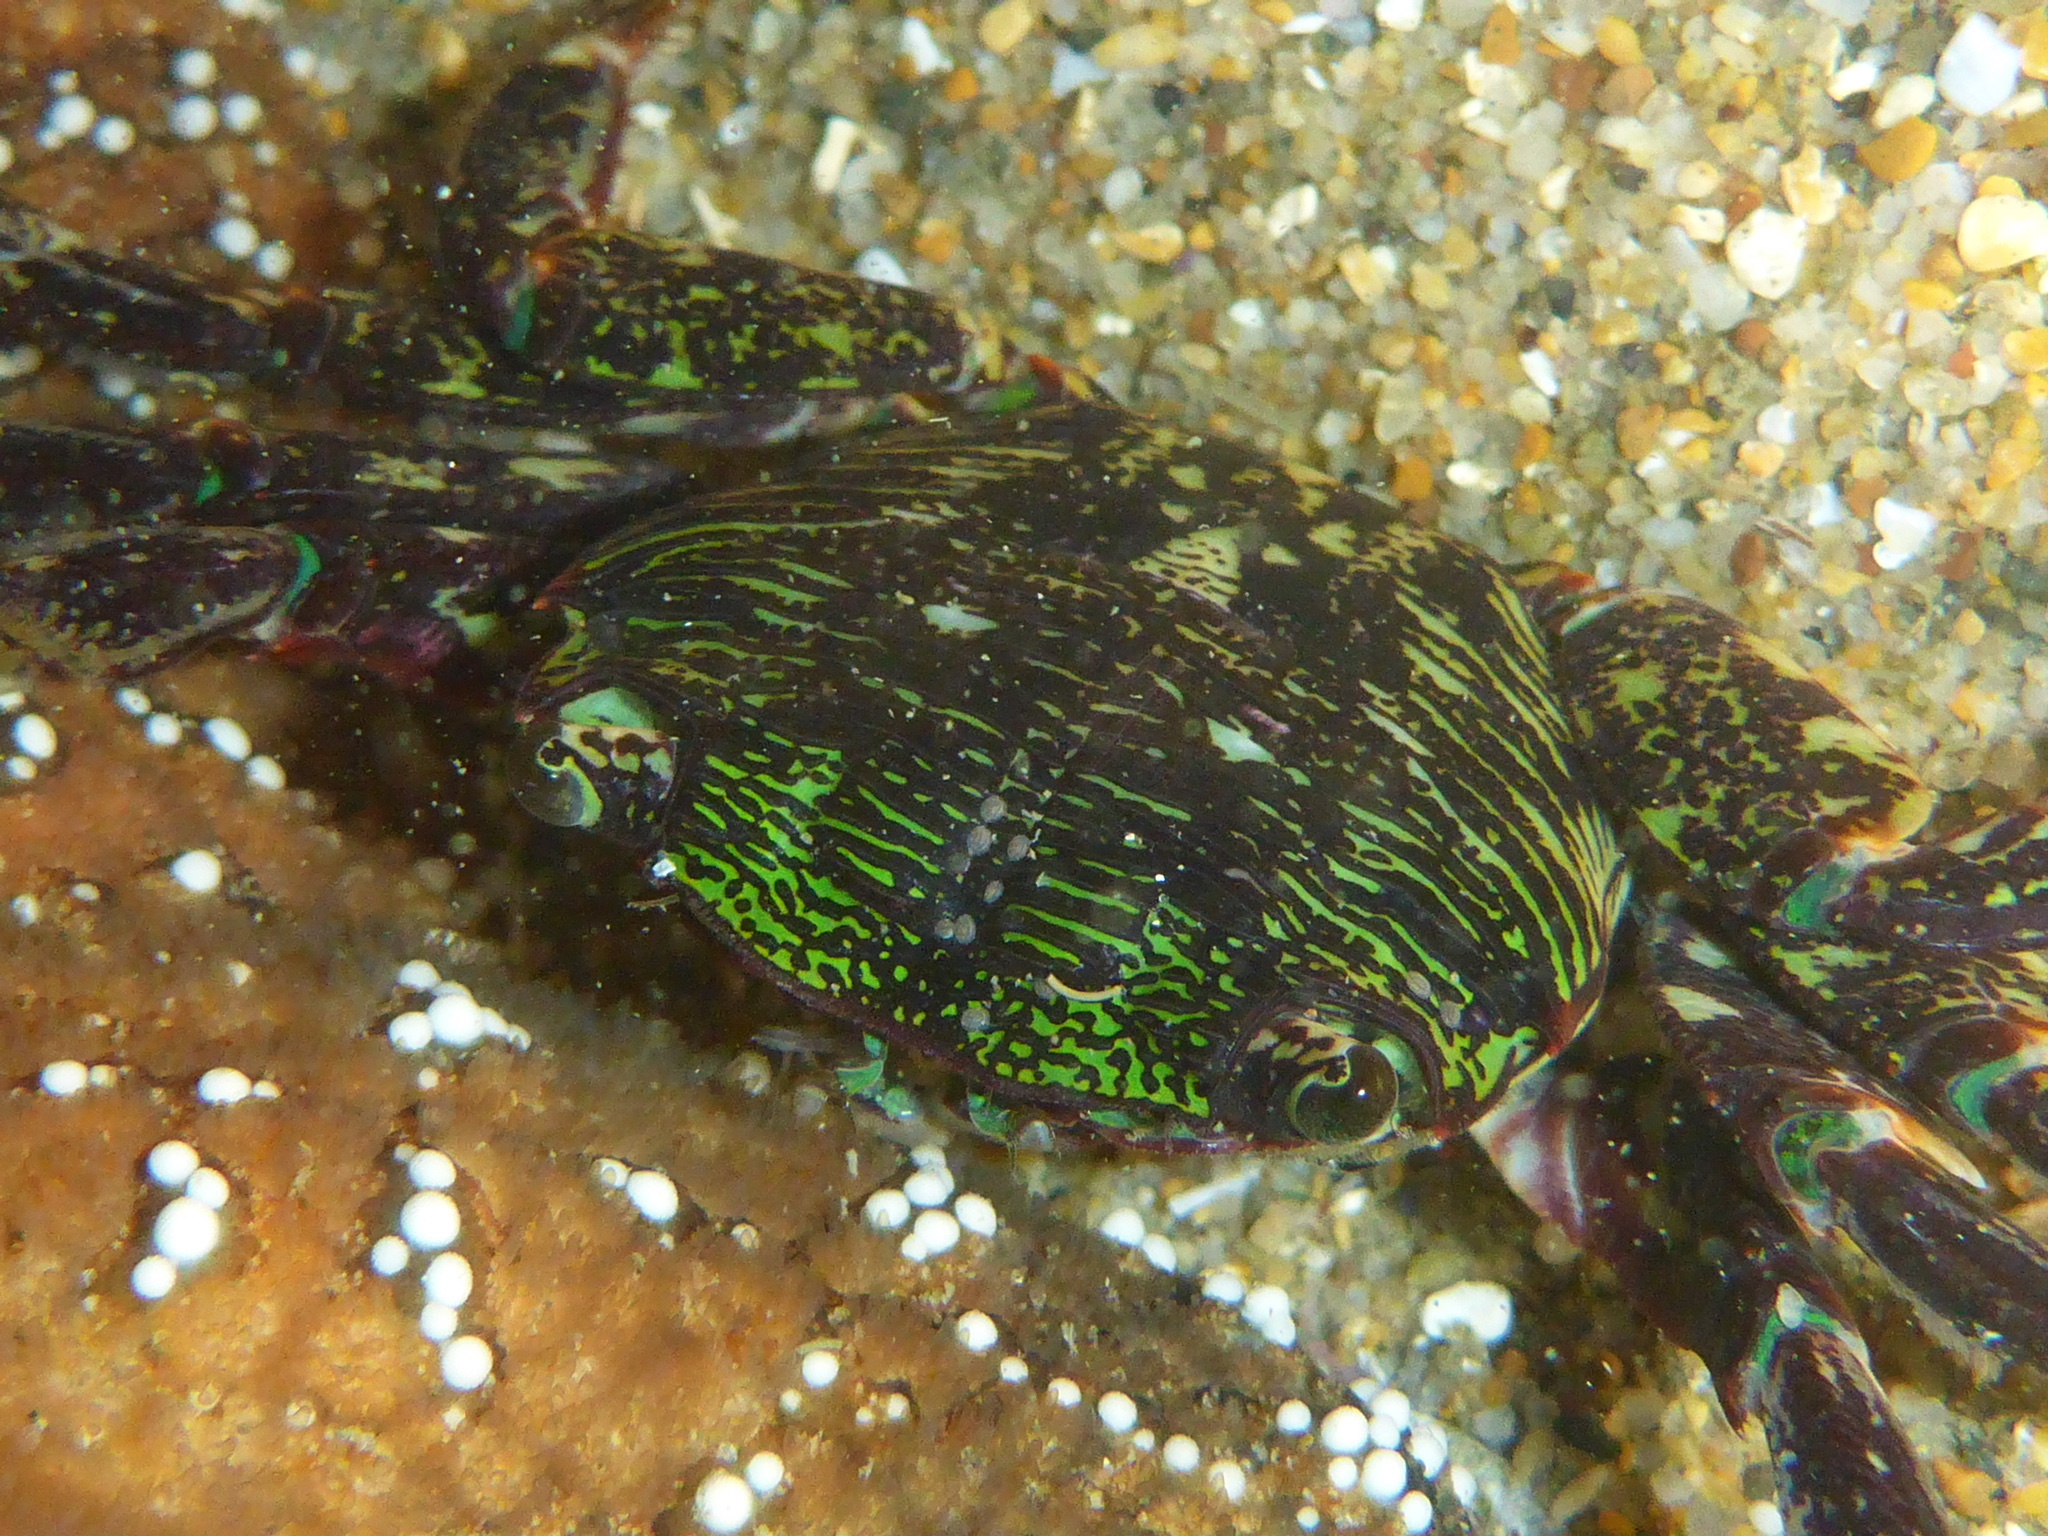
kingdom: Animalia
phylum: Arthropoda
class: Malacostraca
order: Decapoda
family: Grapsidae
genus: Pachygrapsus
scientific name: Pachygrapsus crassipes
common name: Striped shore crab
